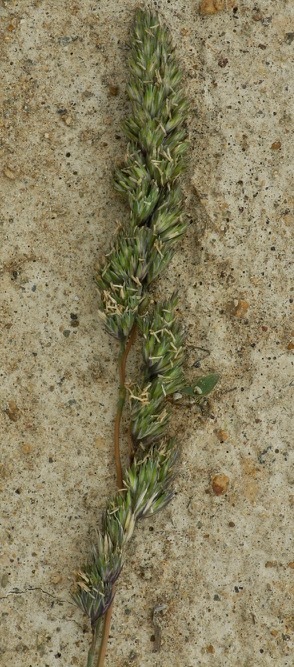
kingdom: Plantae
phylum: Tracheophyta
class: Liliopsida
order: Poales
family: Poaceae
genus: Dactylis
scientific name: Dactylis glomerata
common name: Orchardgrass
